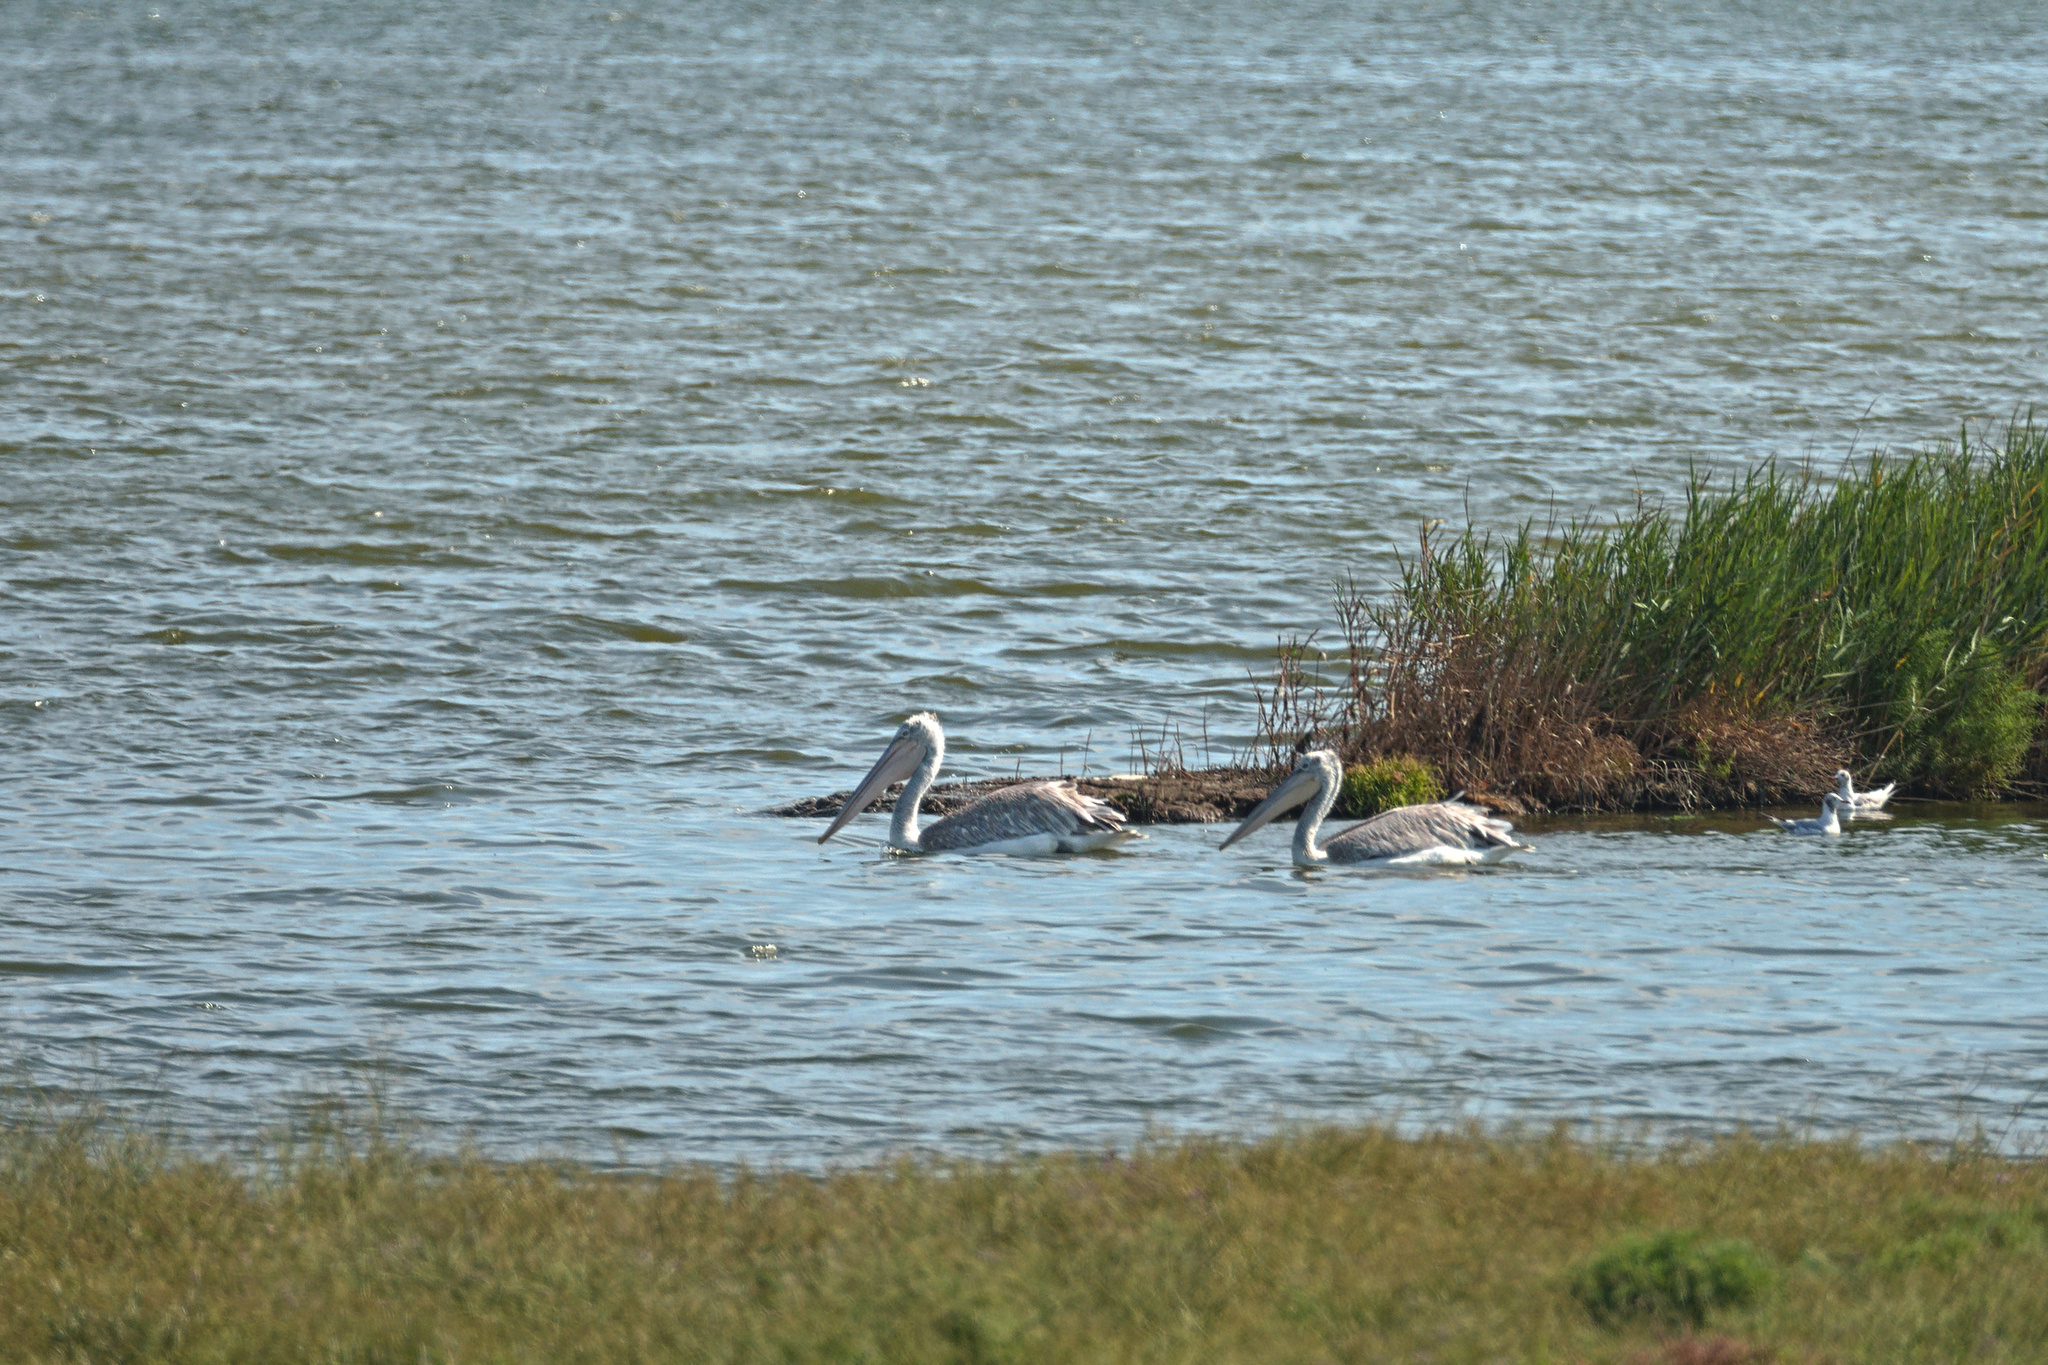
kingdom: Animalia
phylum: Chordata
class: Aves
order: Pelecaniformes
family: Pelecanidae
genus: Pelecanus
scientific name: Pelecanus crispus
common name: Dalmatian pelican
